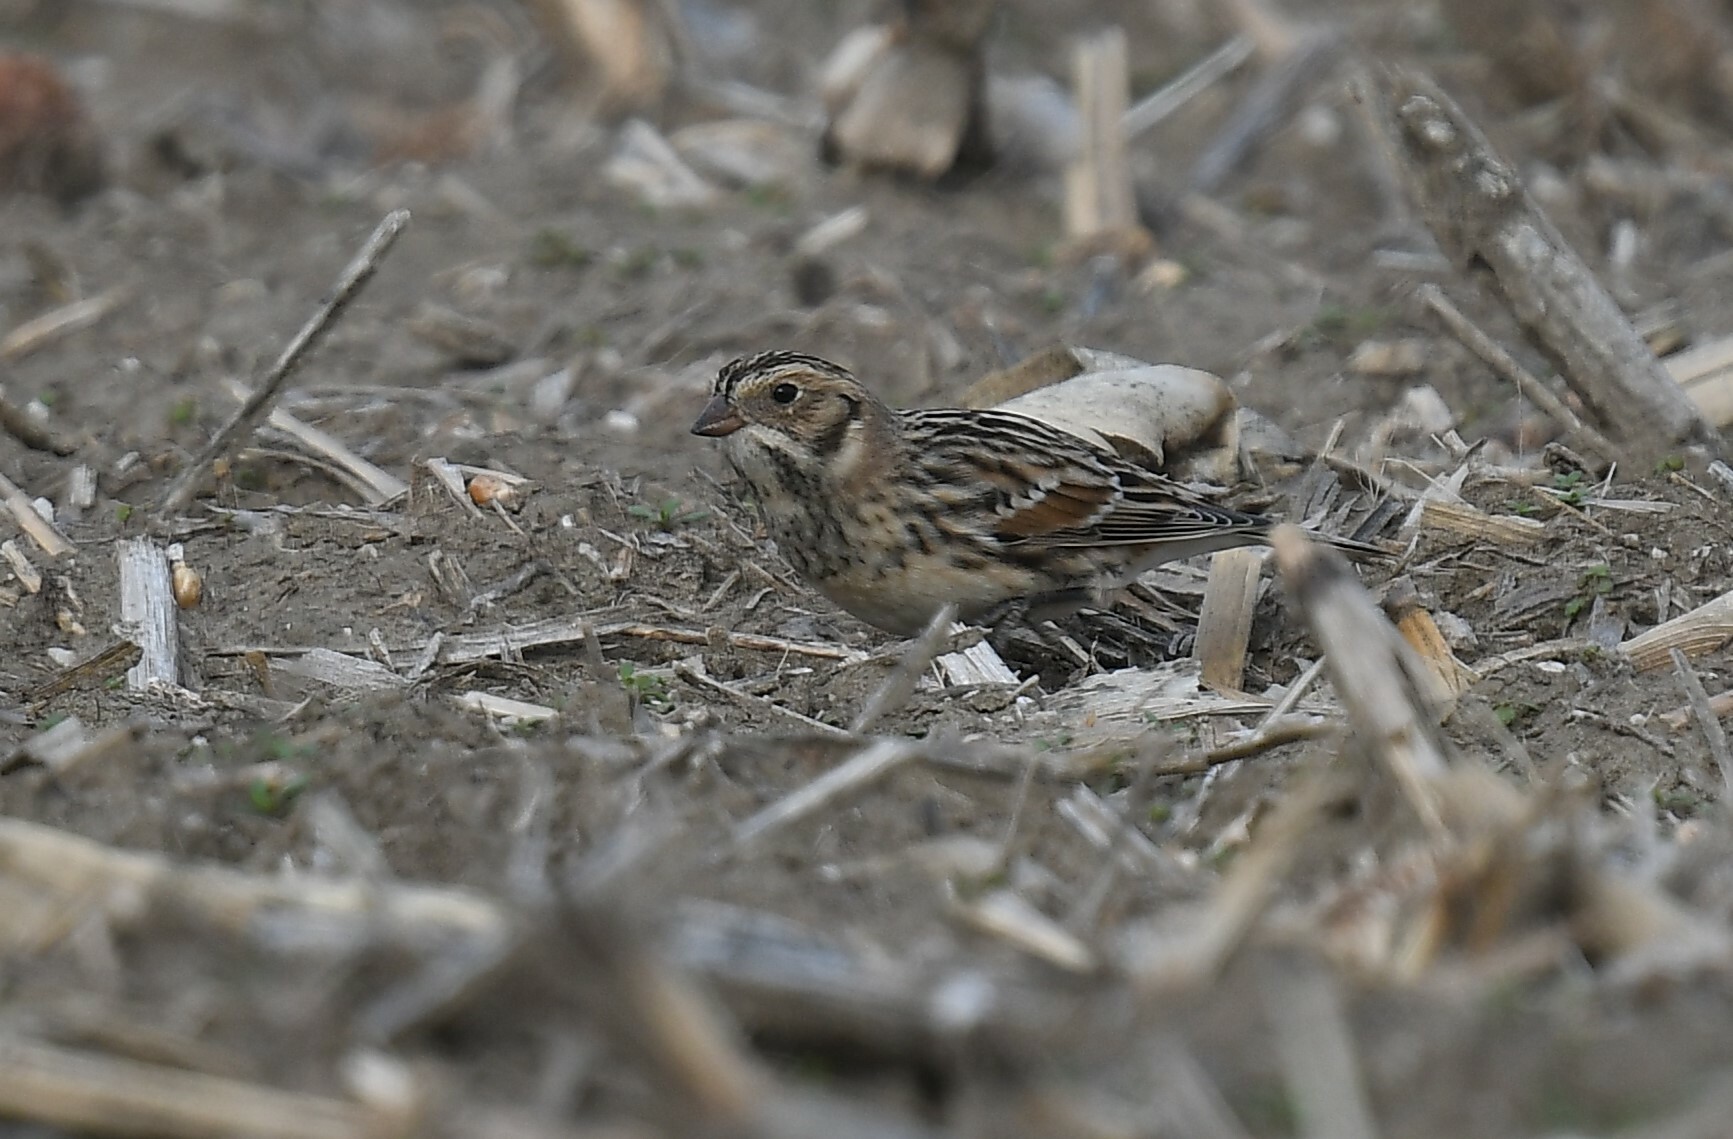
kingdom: Animalia
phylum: Chordata
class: Aves
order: Passeriformes
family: Calcariidae
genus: Calcarius
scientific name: Calcarius lapponicus
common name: Lapland longspur
